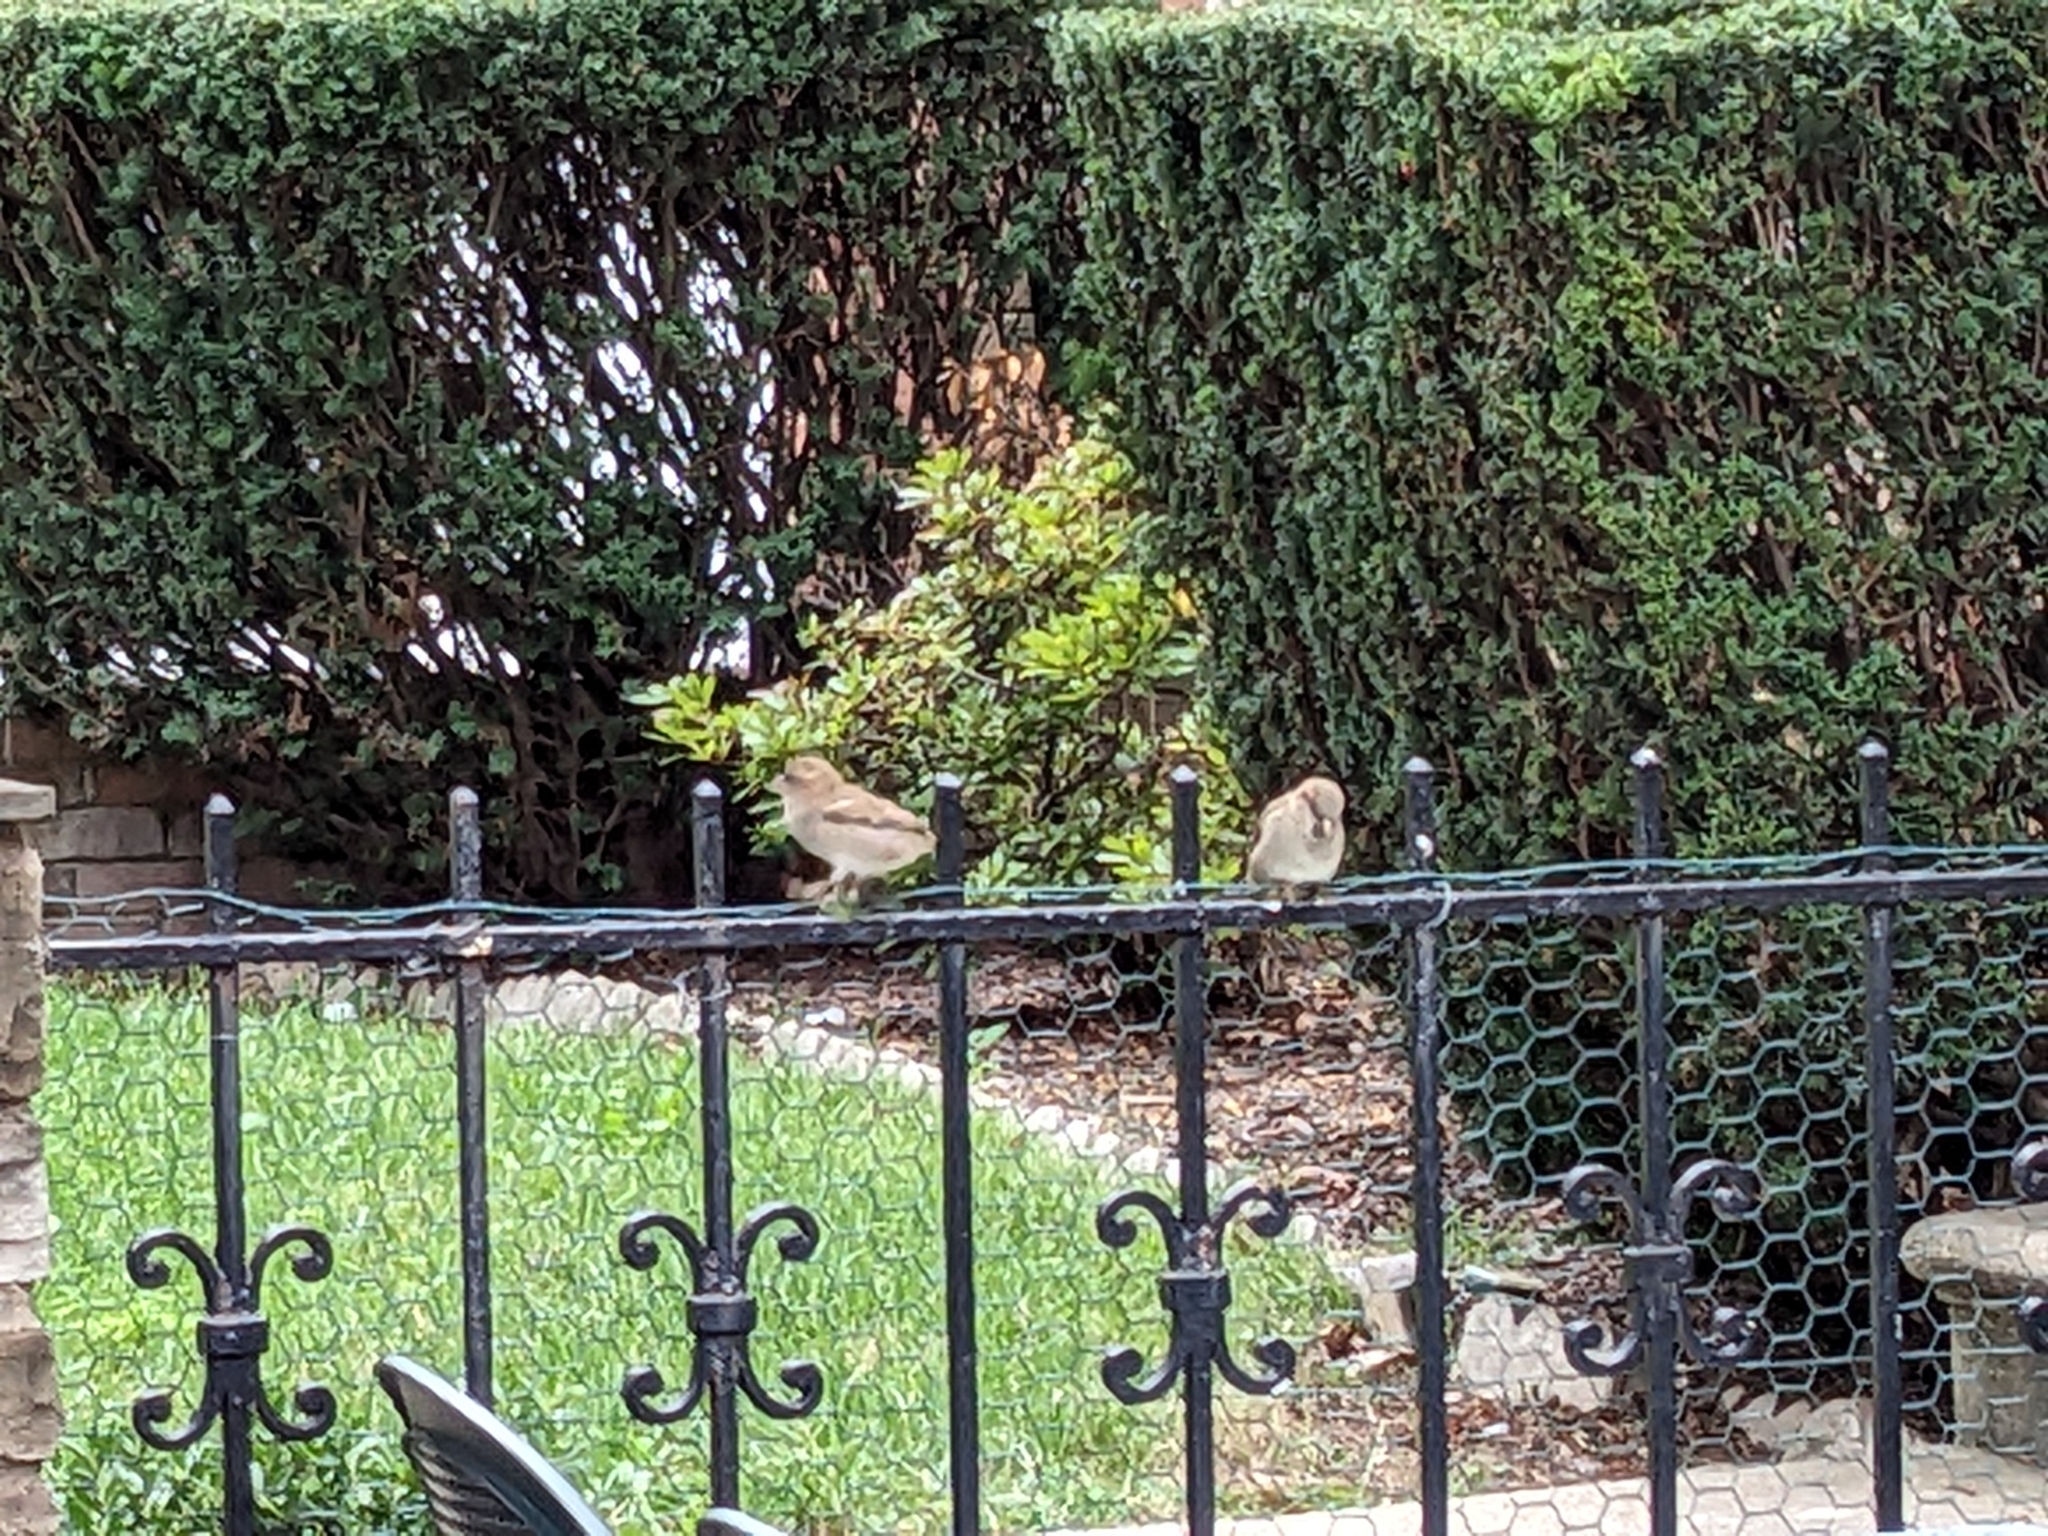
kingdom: Animalia
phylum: Chordata
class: Aves
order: Passeriformes
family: Passeridae
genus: Passer
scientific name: Passer domesticus
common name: House sparrow
